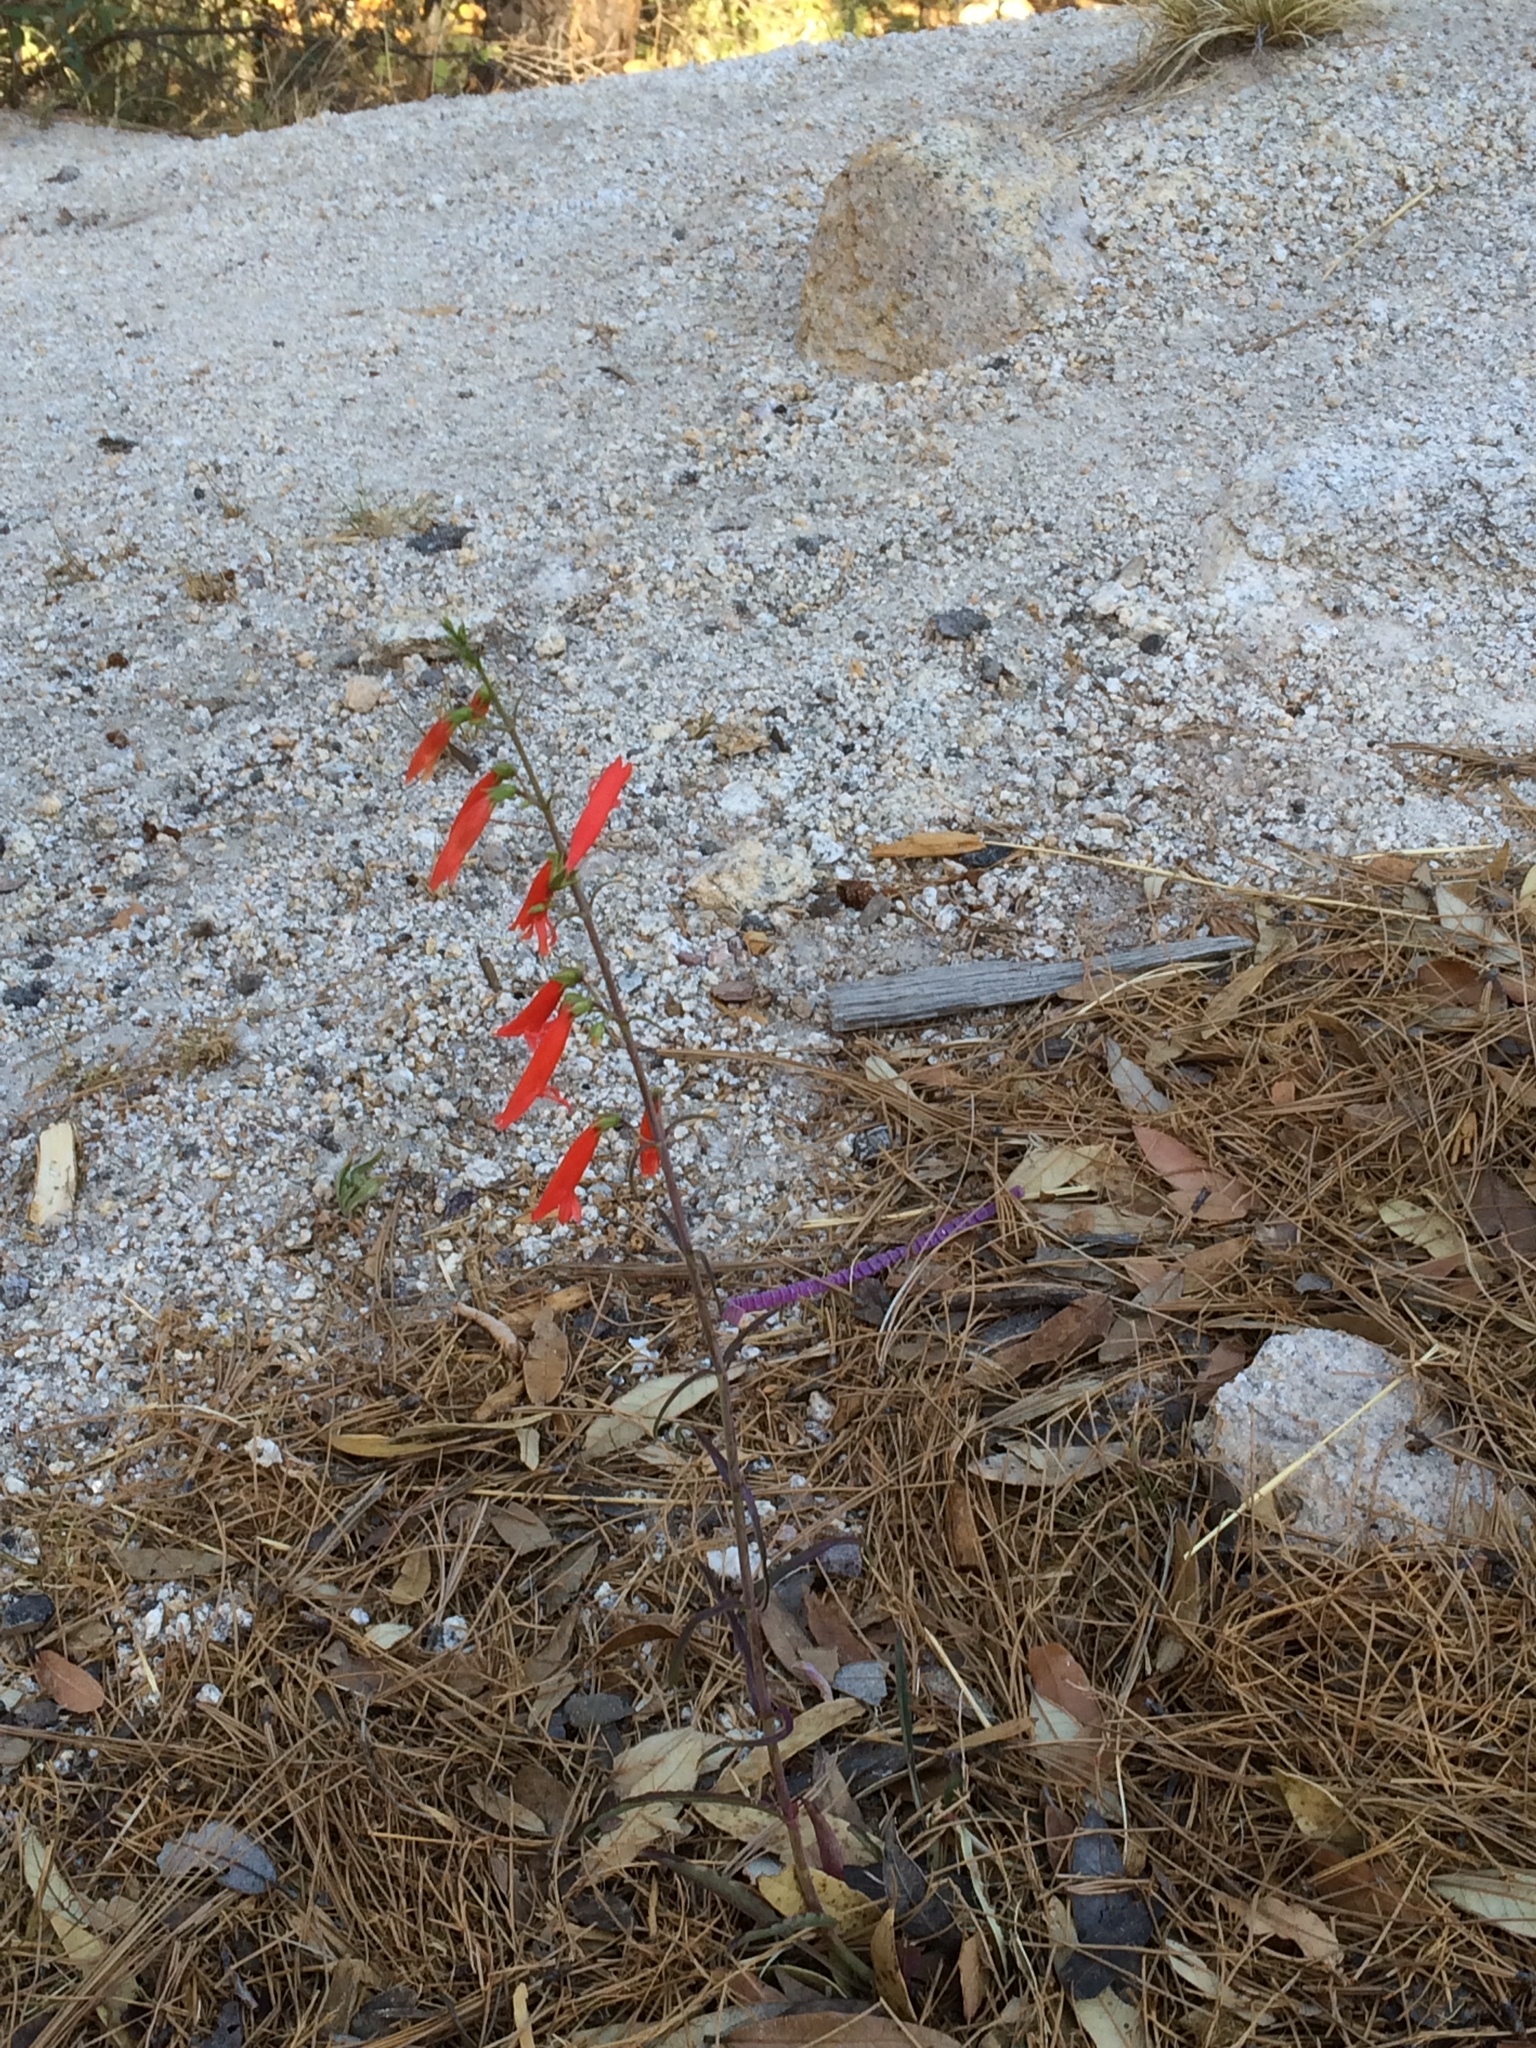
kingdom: Plantae
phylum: Tracheophyta
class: Magnoliopsida
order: Lamiales
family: Plantaginaceae
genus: Penstemon
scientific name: Penstemon barbatus
